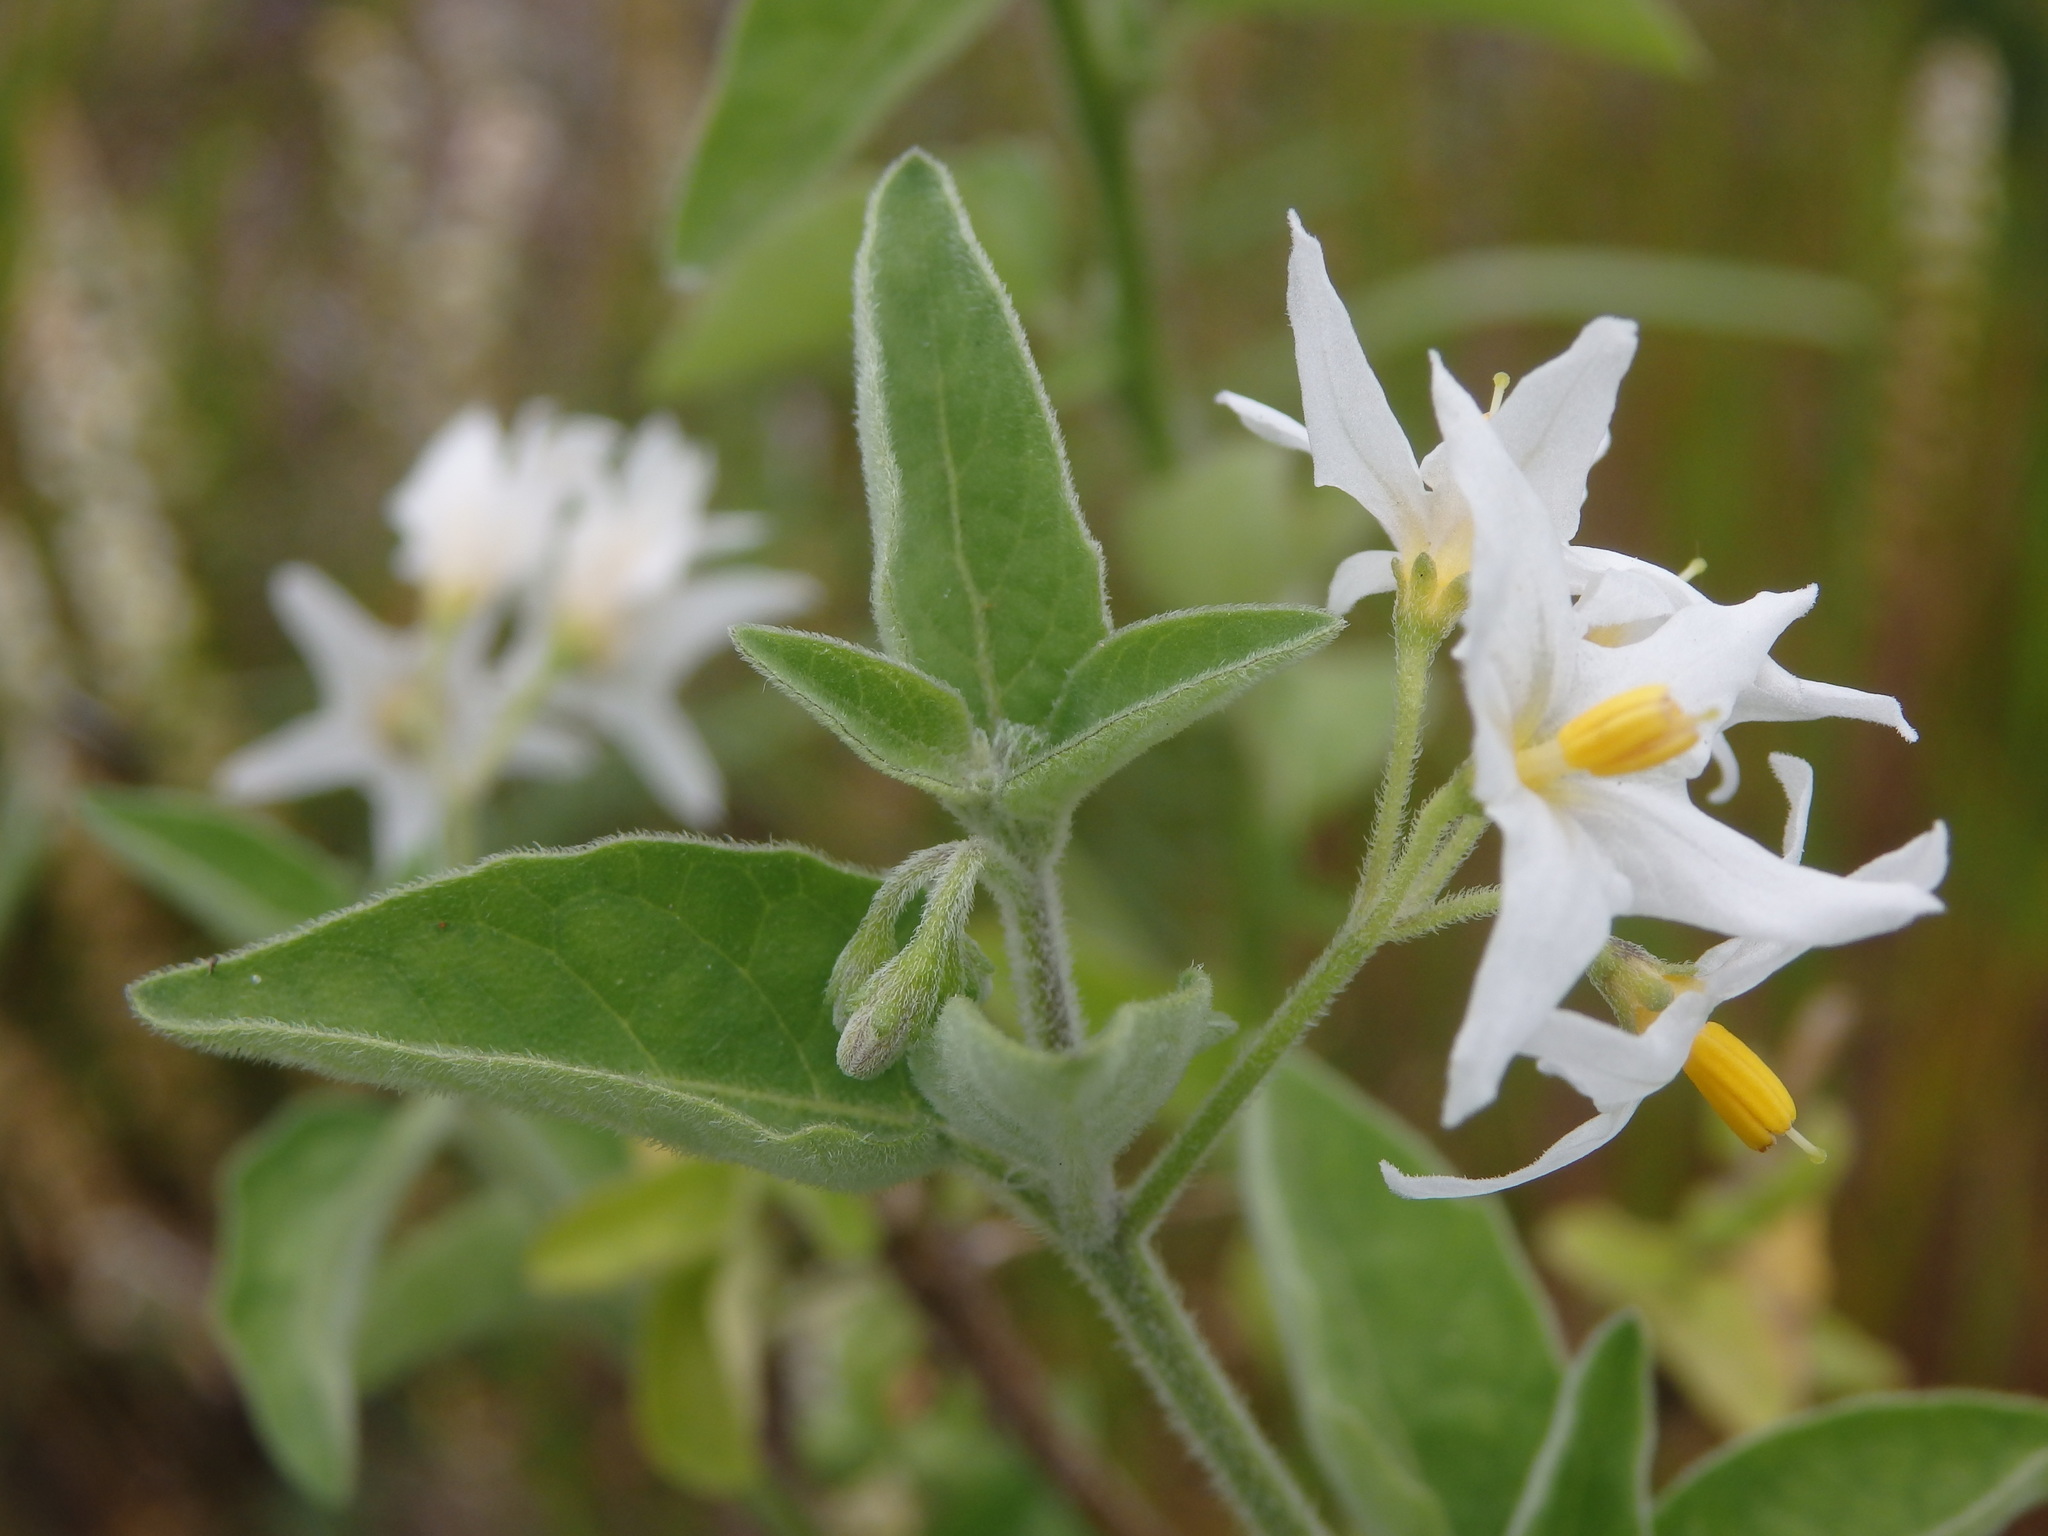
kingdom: Plantae
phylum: Tracheophyta
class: Magnoliopsida
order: Solanales
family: Solanaceae
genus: Solanum
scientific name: Solanum chenopodioides
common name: Tall nightshade
